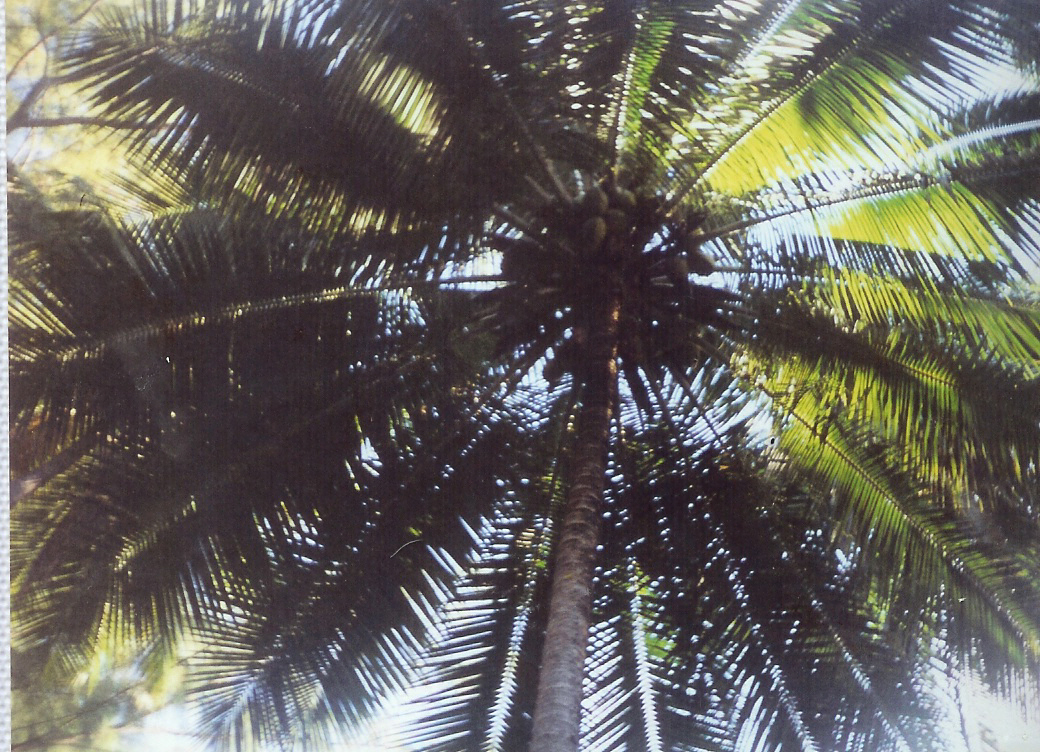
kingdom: Plantae
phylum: Tracheophyta
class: Liliopsida
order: Arecales
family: Arecaceae
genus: Cocos
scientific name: Cocos nucifera
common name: Coconut palm
